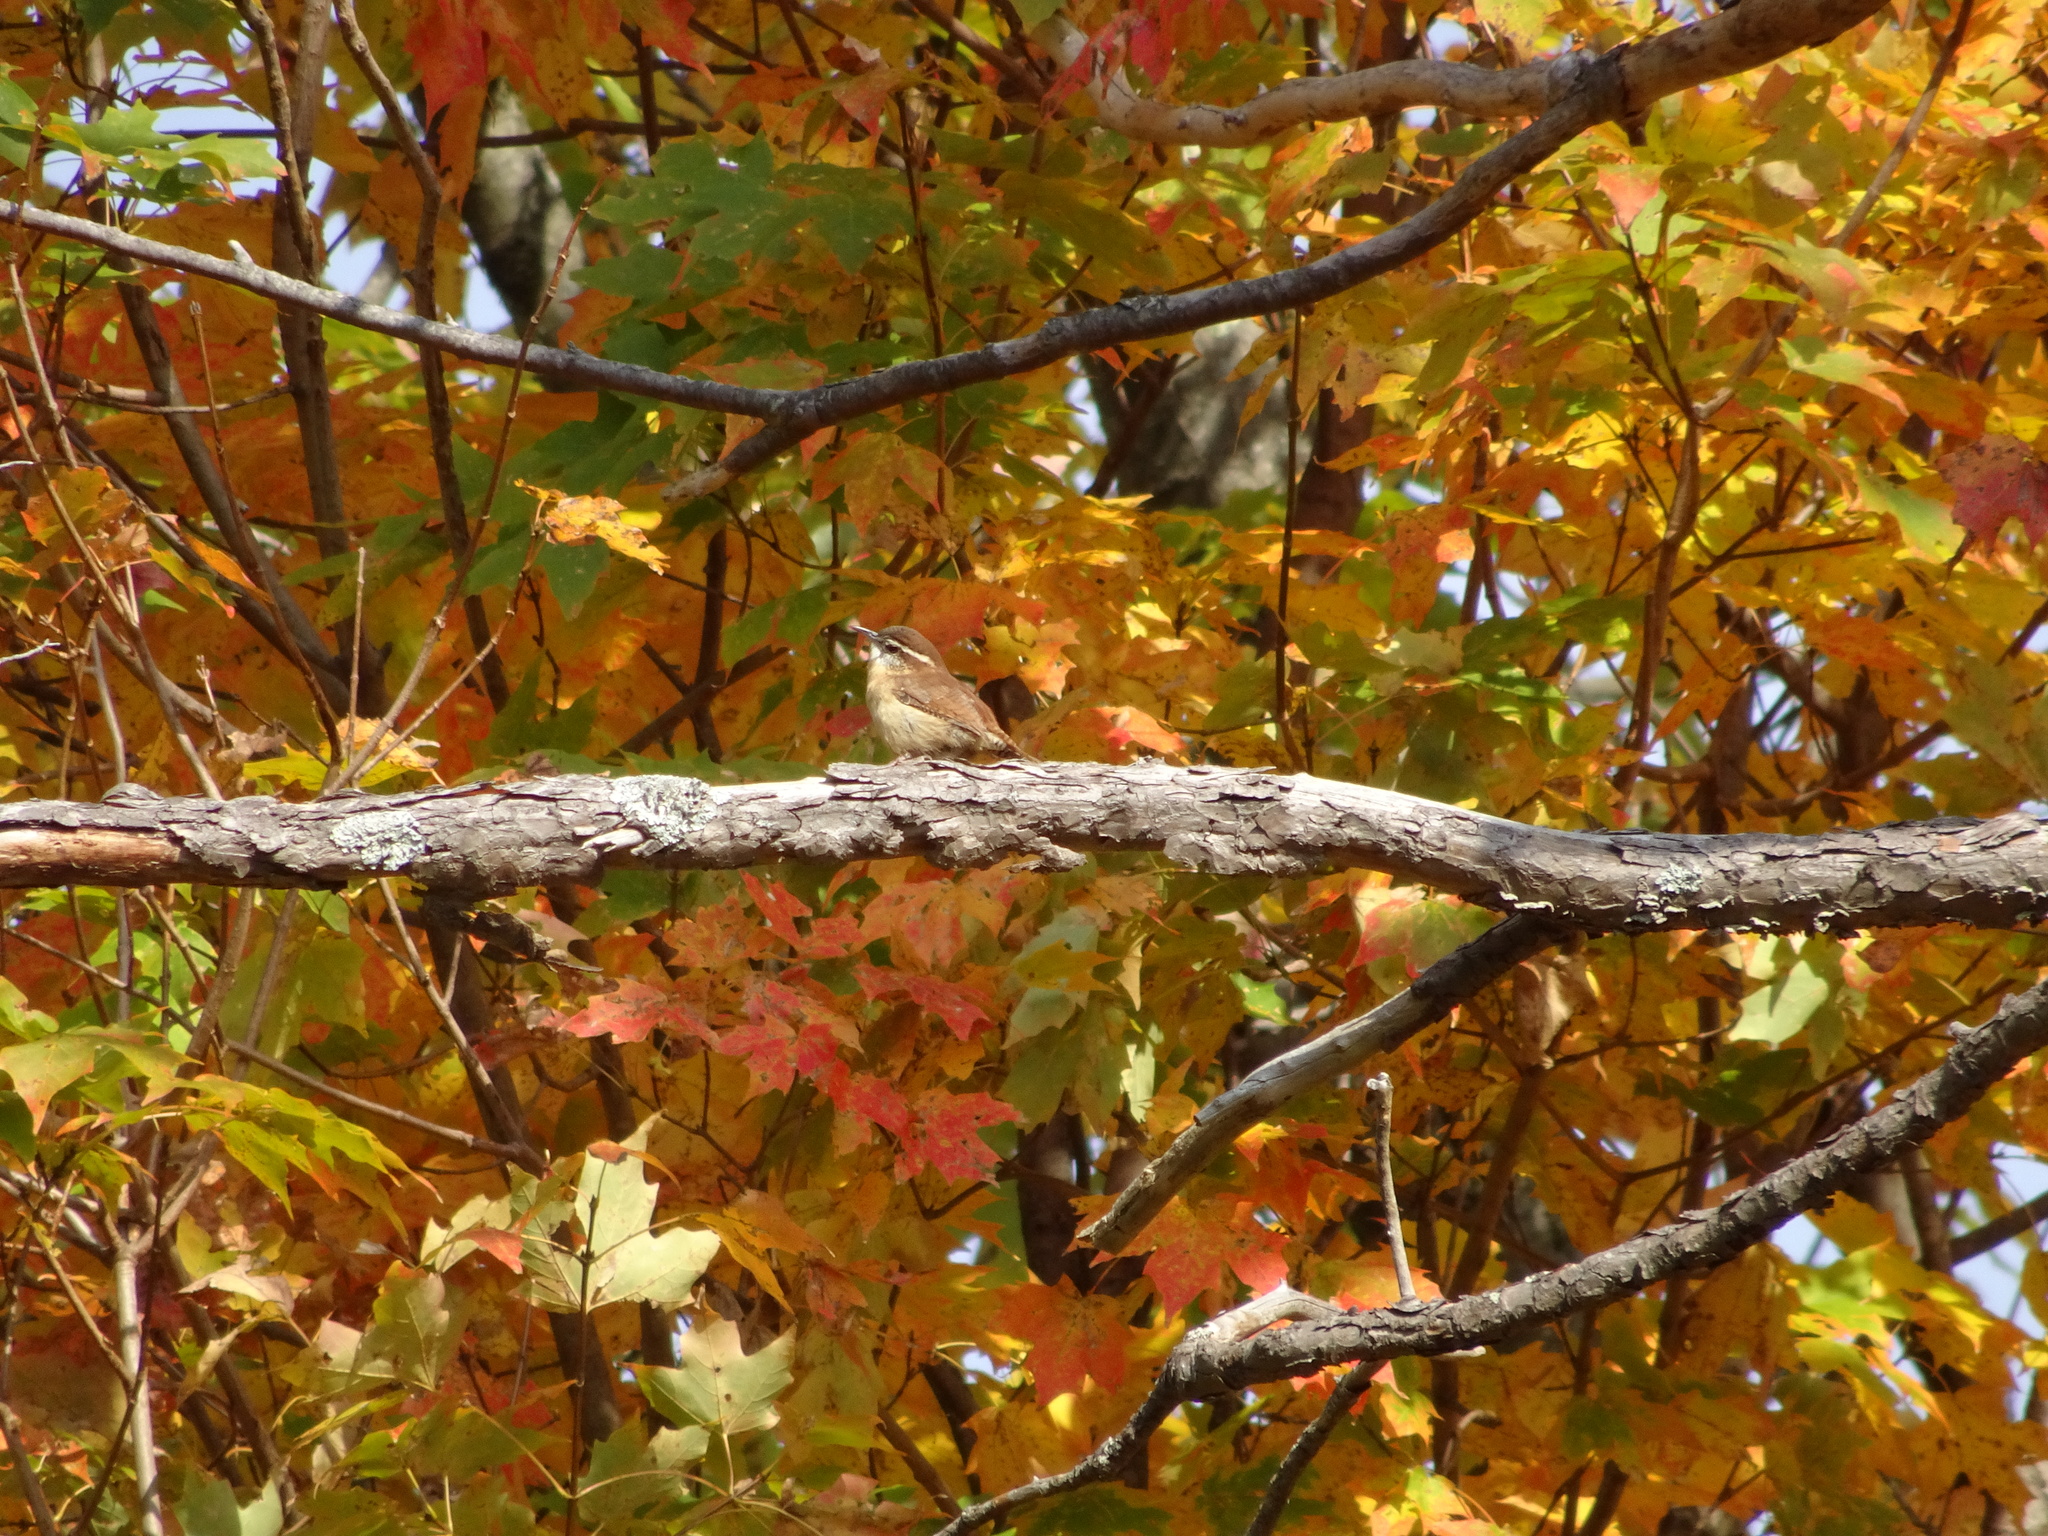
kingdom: Animalia
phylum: Chordata
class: Aves
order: Passeriformes
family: Troglodytidae
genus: Thryothorus
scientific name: Thryothorus ludovicianus
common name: Carolina wren
